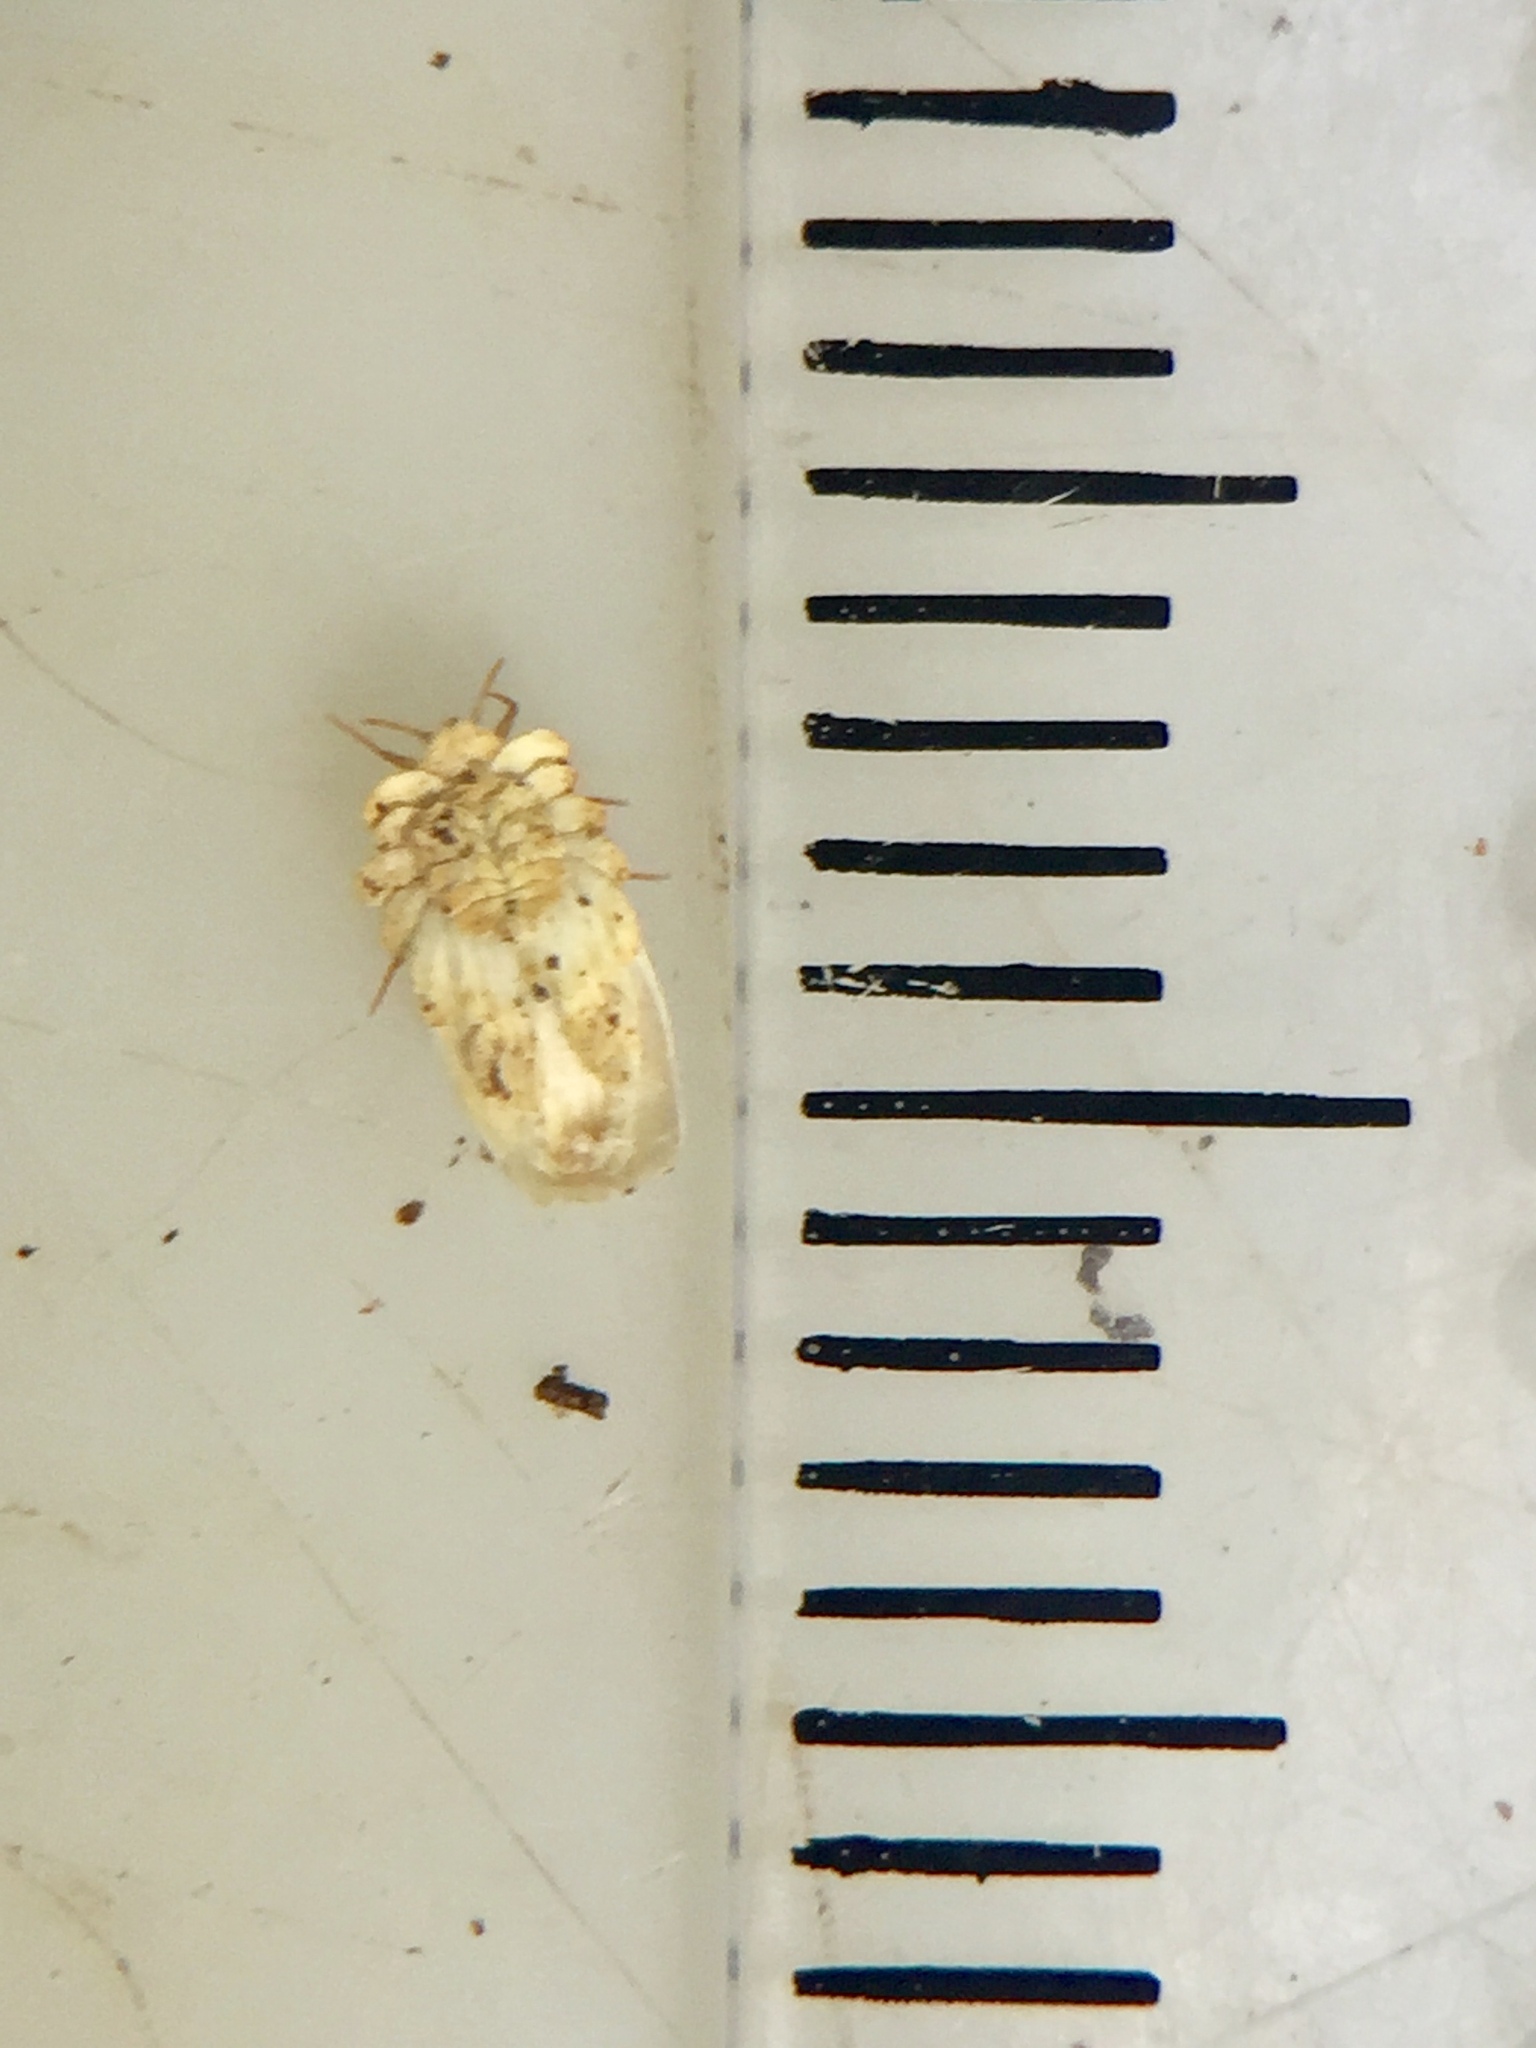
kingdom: Animalia
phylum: Arthropoda
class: Insecta
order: Hemiptera
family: Ortheziidae
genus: Newsteadia
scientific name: Newsteadia gullanae
